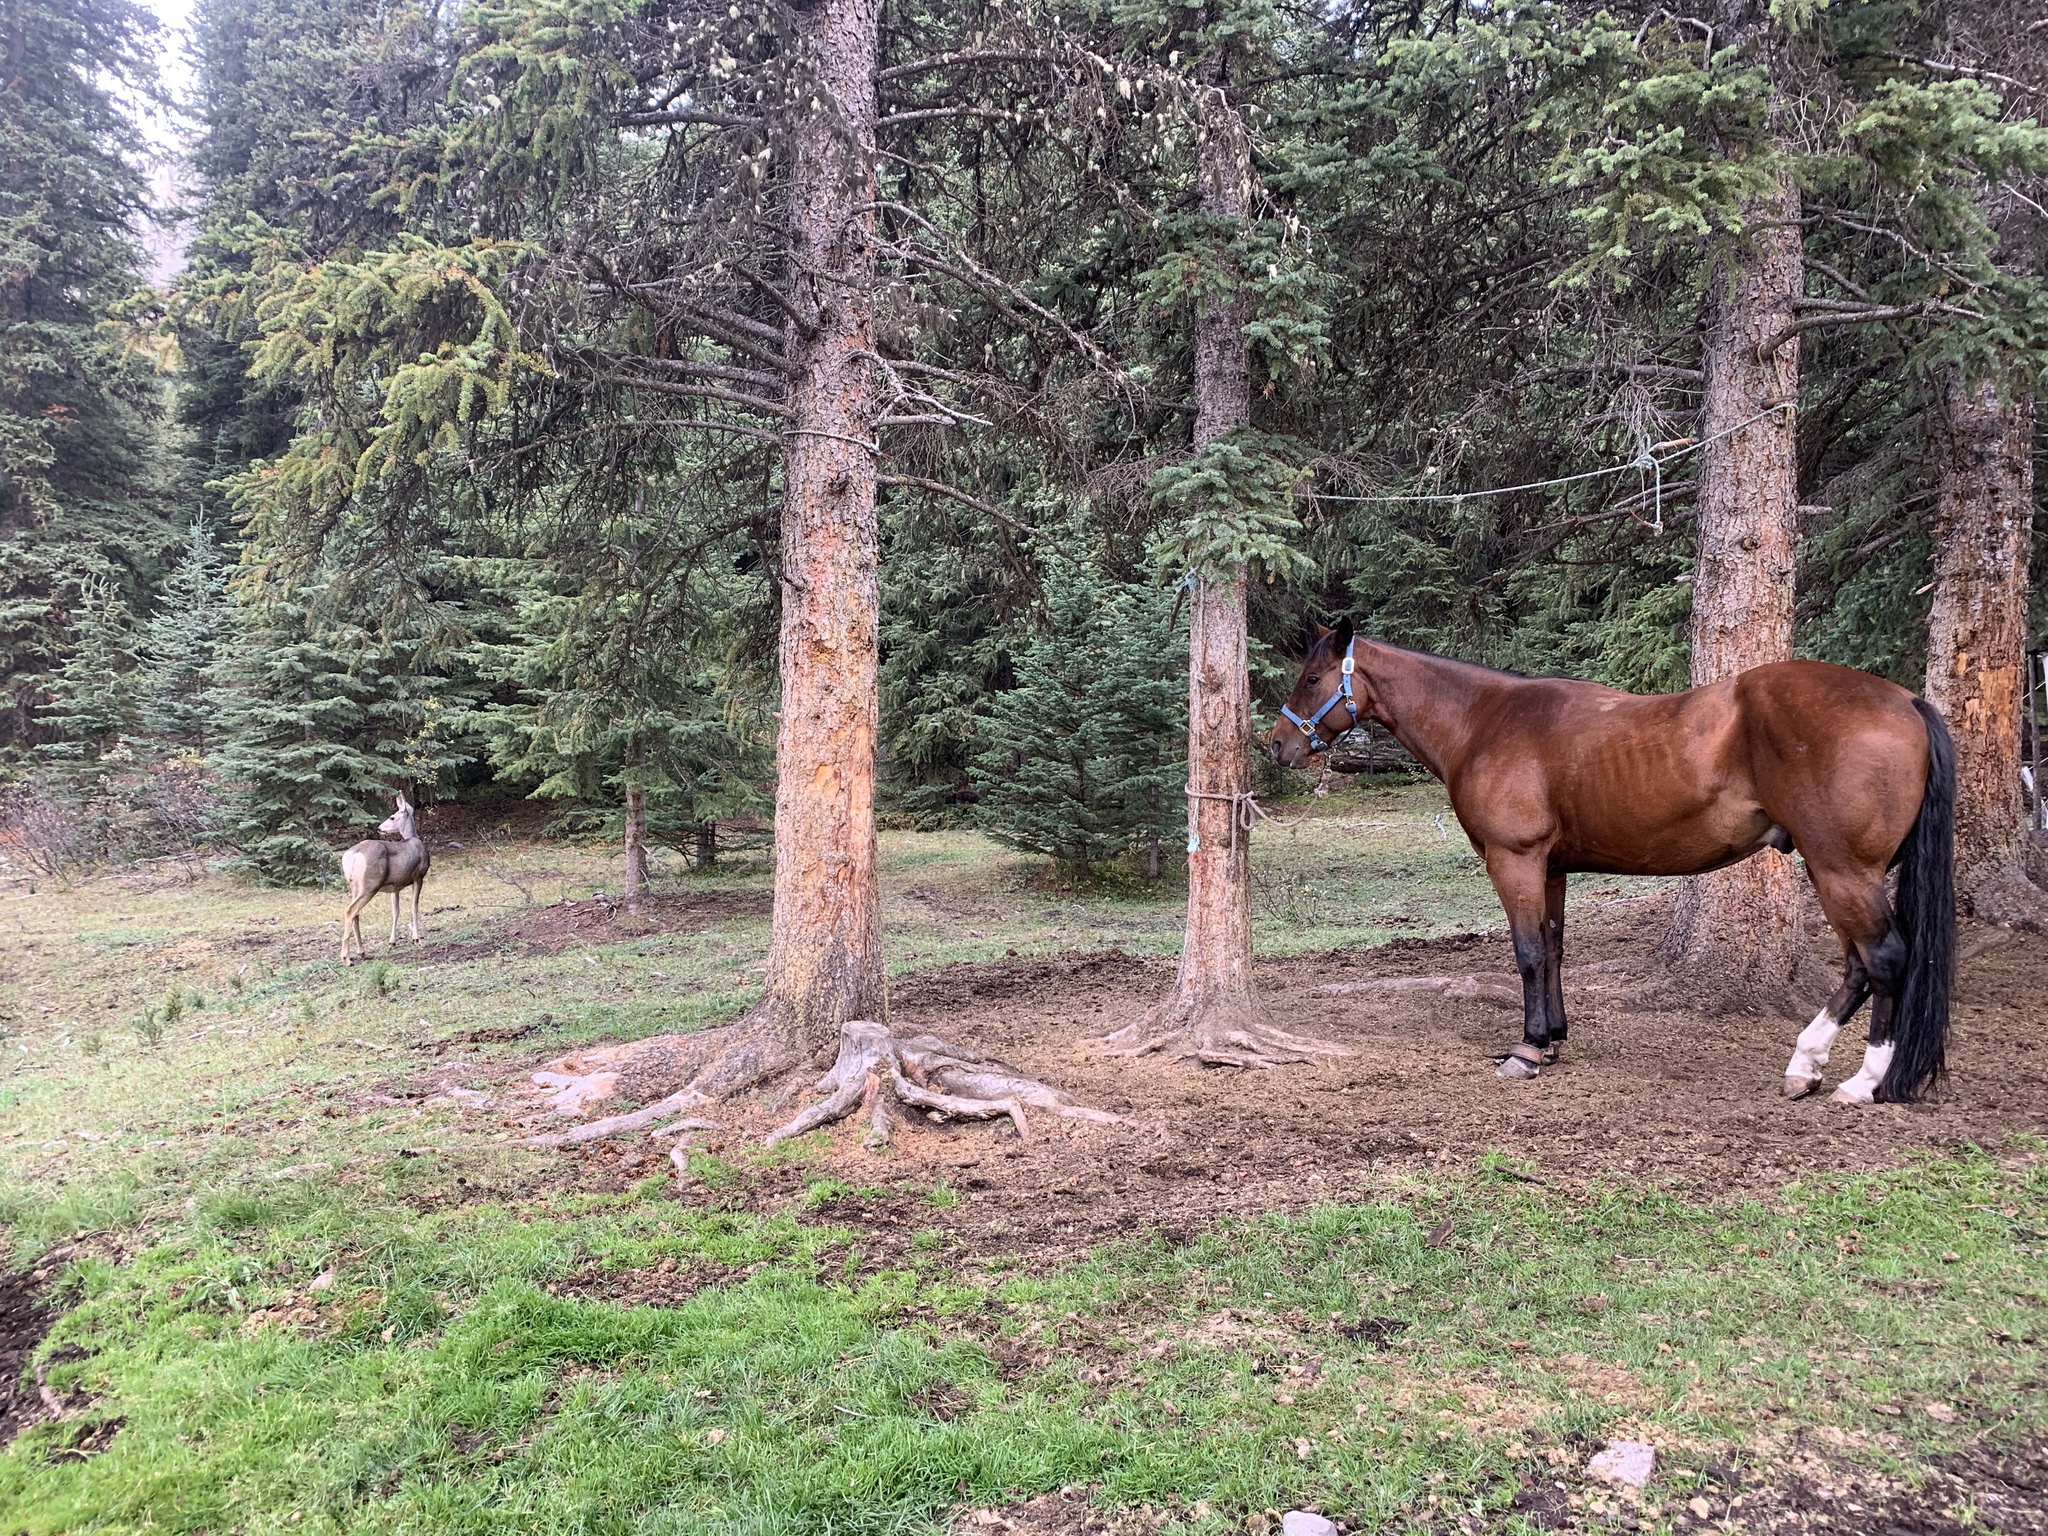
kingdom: Animalia
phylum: Chordata
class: Mammalia
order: Artiodactyla
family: Cervidae
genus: Odocoileus
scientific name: Odocoileus hemionus
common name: Mule deer
